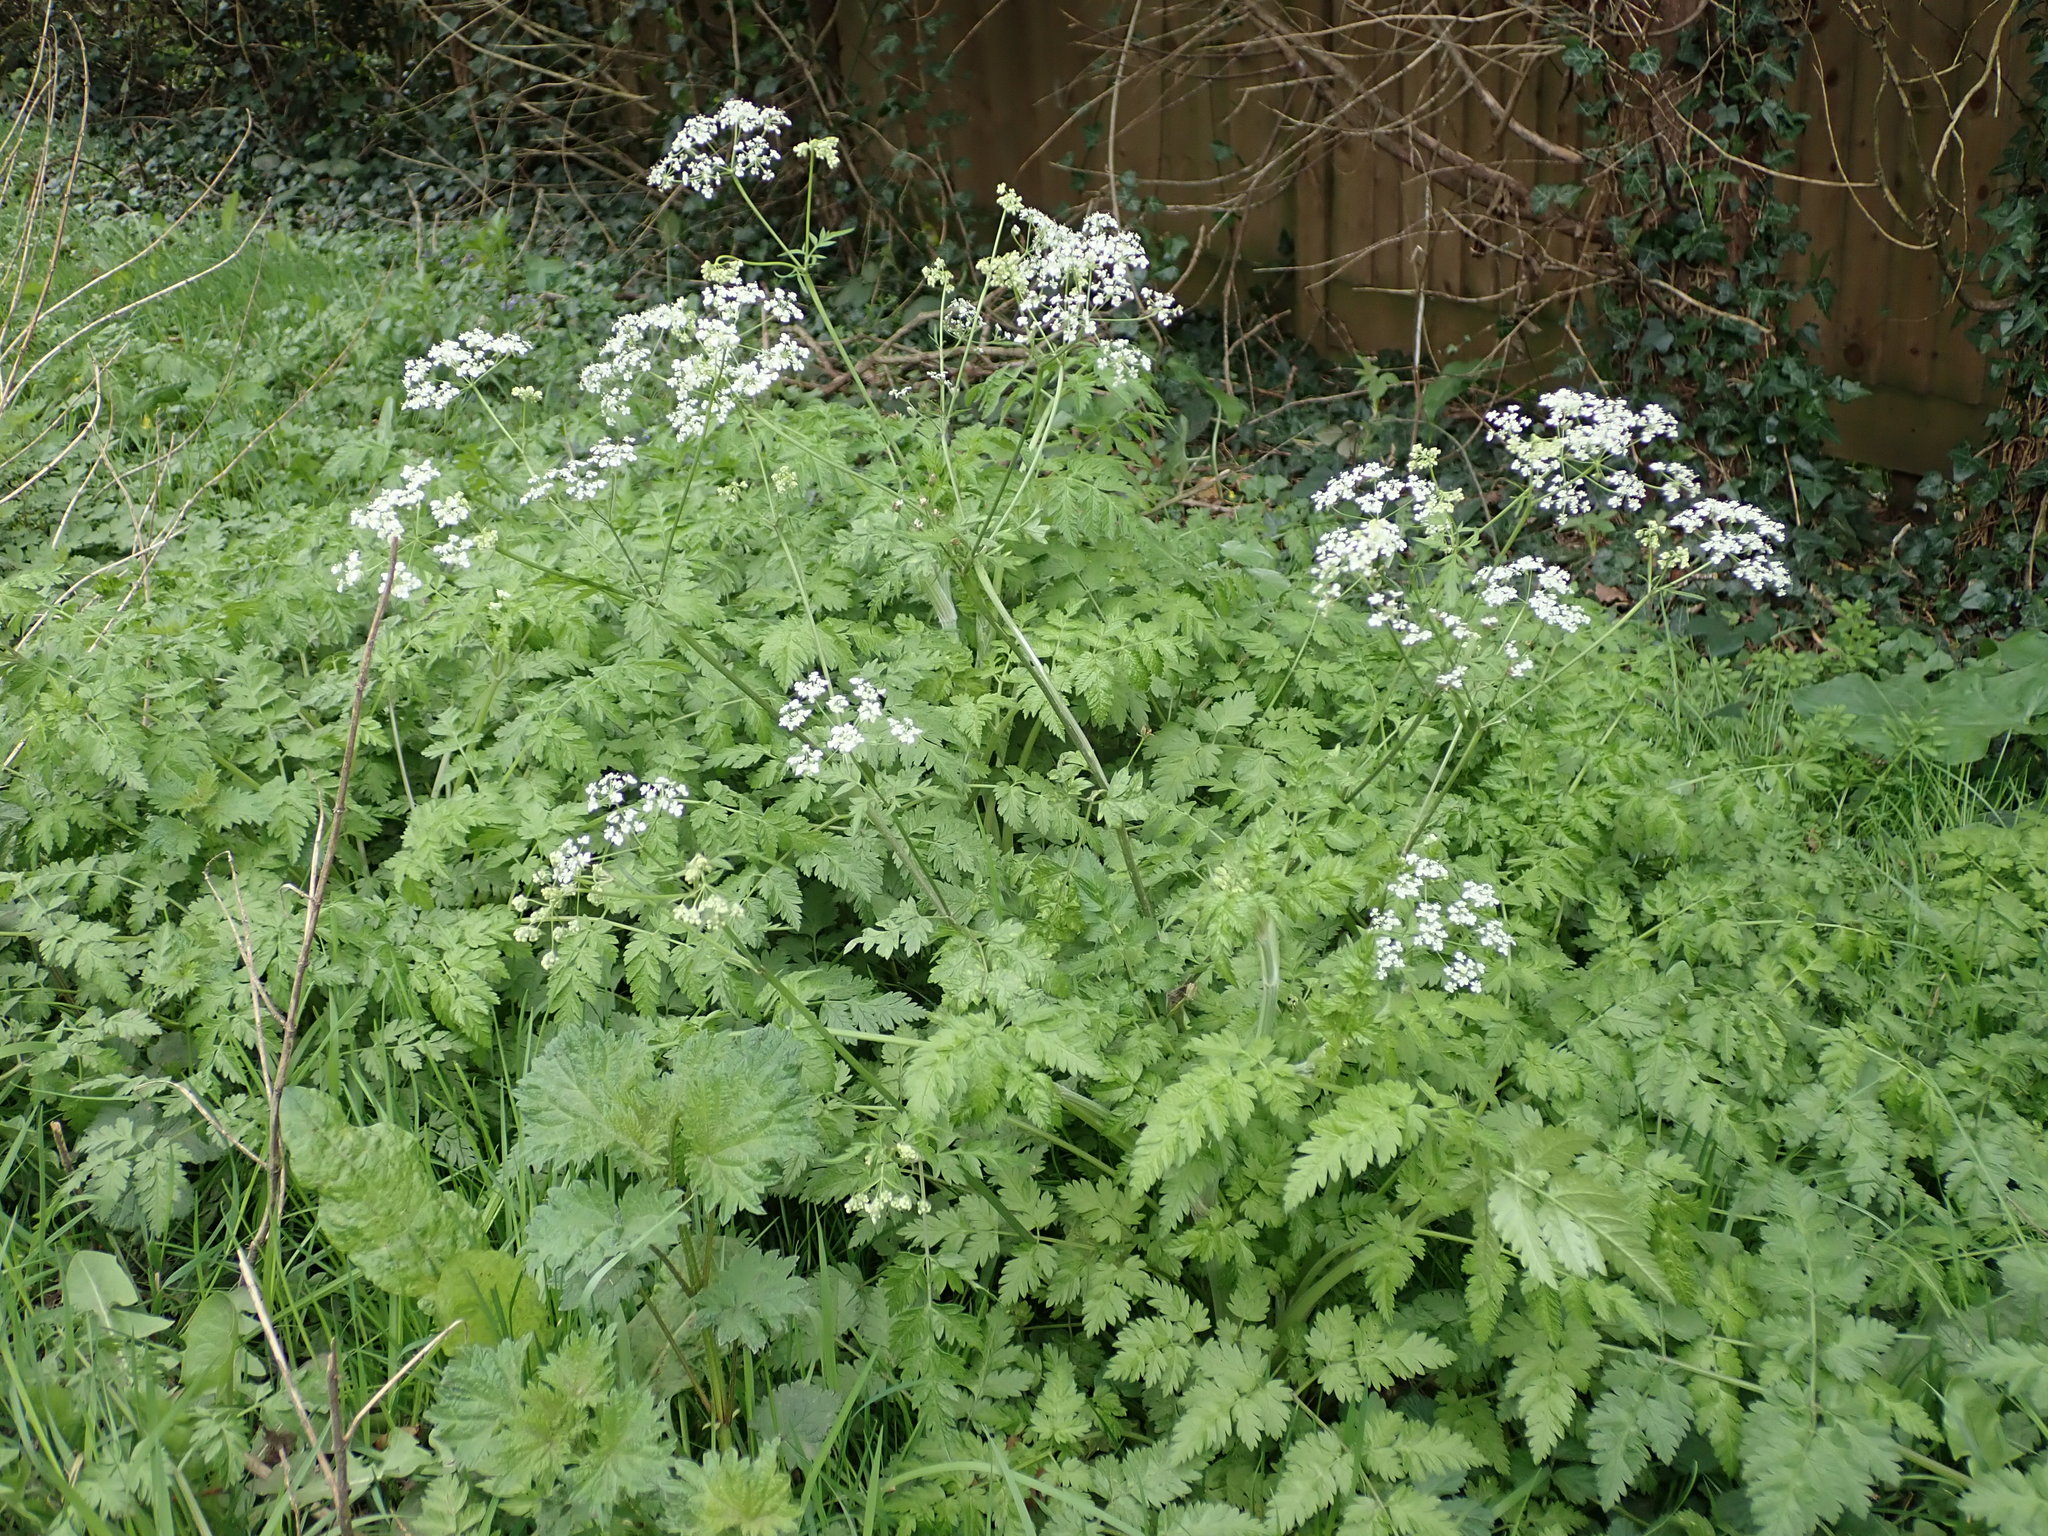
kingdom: Plantae
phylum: Tracheophyta
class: Magnoliopsida
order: Apiales
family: Apiaceae
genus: Anthriscus
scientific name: Anthriscus sylvestris
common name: Cow parsley
